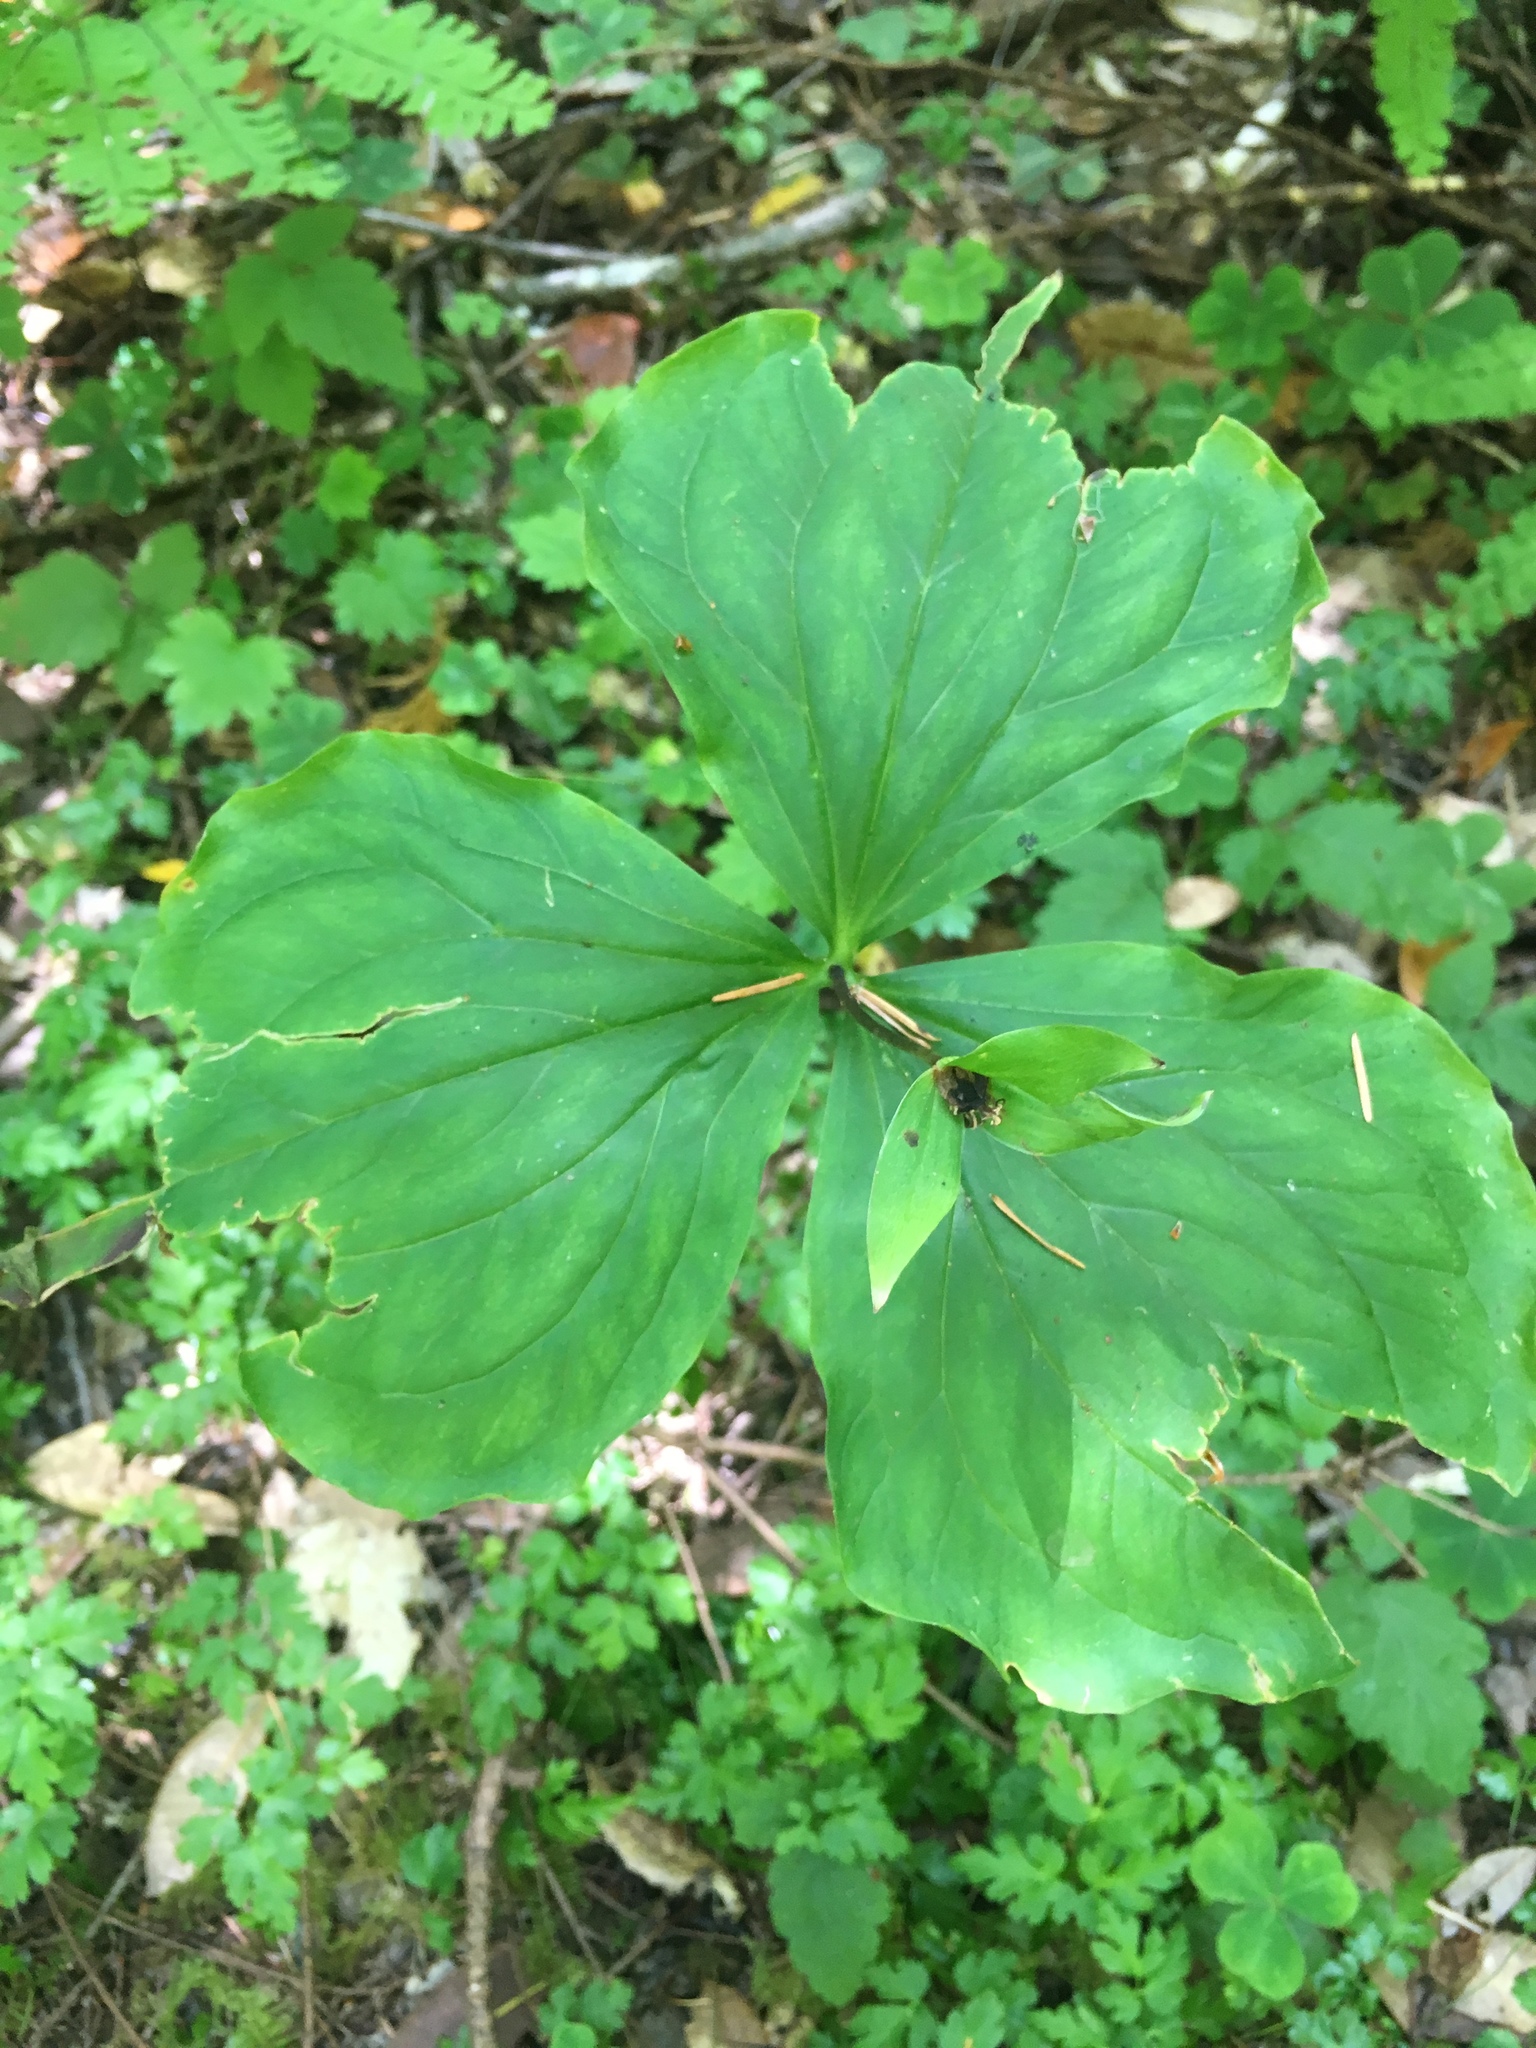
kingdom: Plantae
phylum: Tracheophyta
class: Liliopsida
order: Liliales
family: Melanthiaceae
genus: Trillium
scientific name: Trillium ovatum
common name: Pacific trillium
